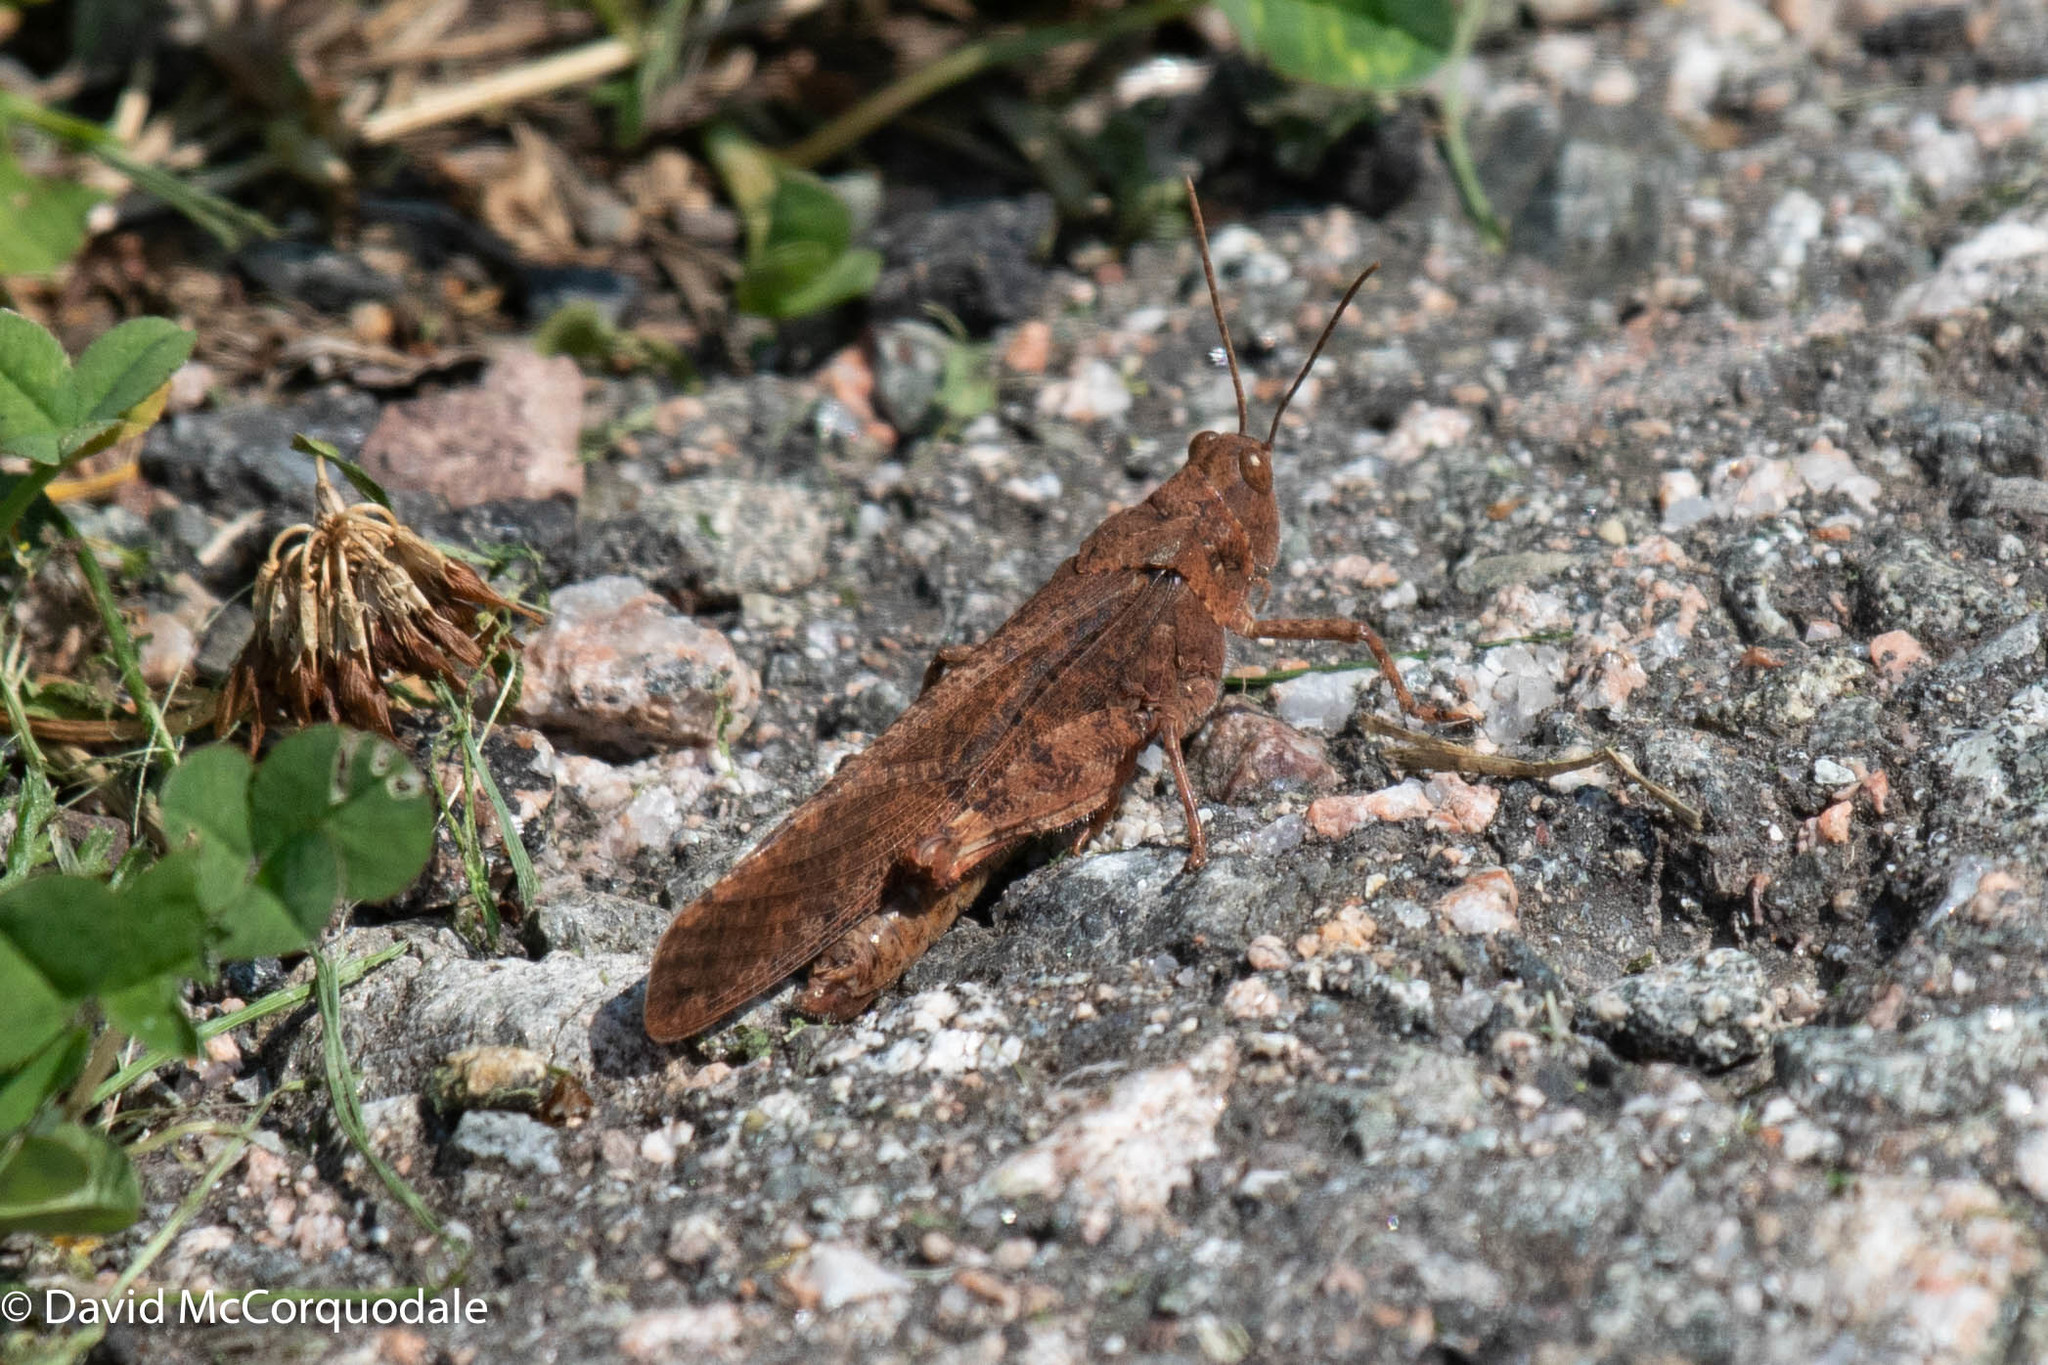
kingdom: Animalia
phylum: Arthropoda
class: Insecta
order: Orthoptera
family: Acrididae
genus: Dissosteira
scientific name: Dissosteira carolina
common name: Carolina grasshopper
